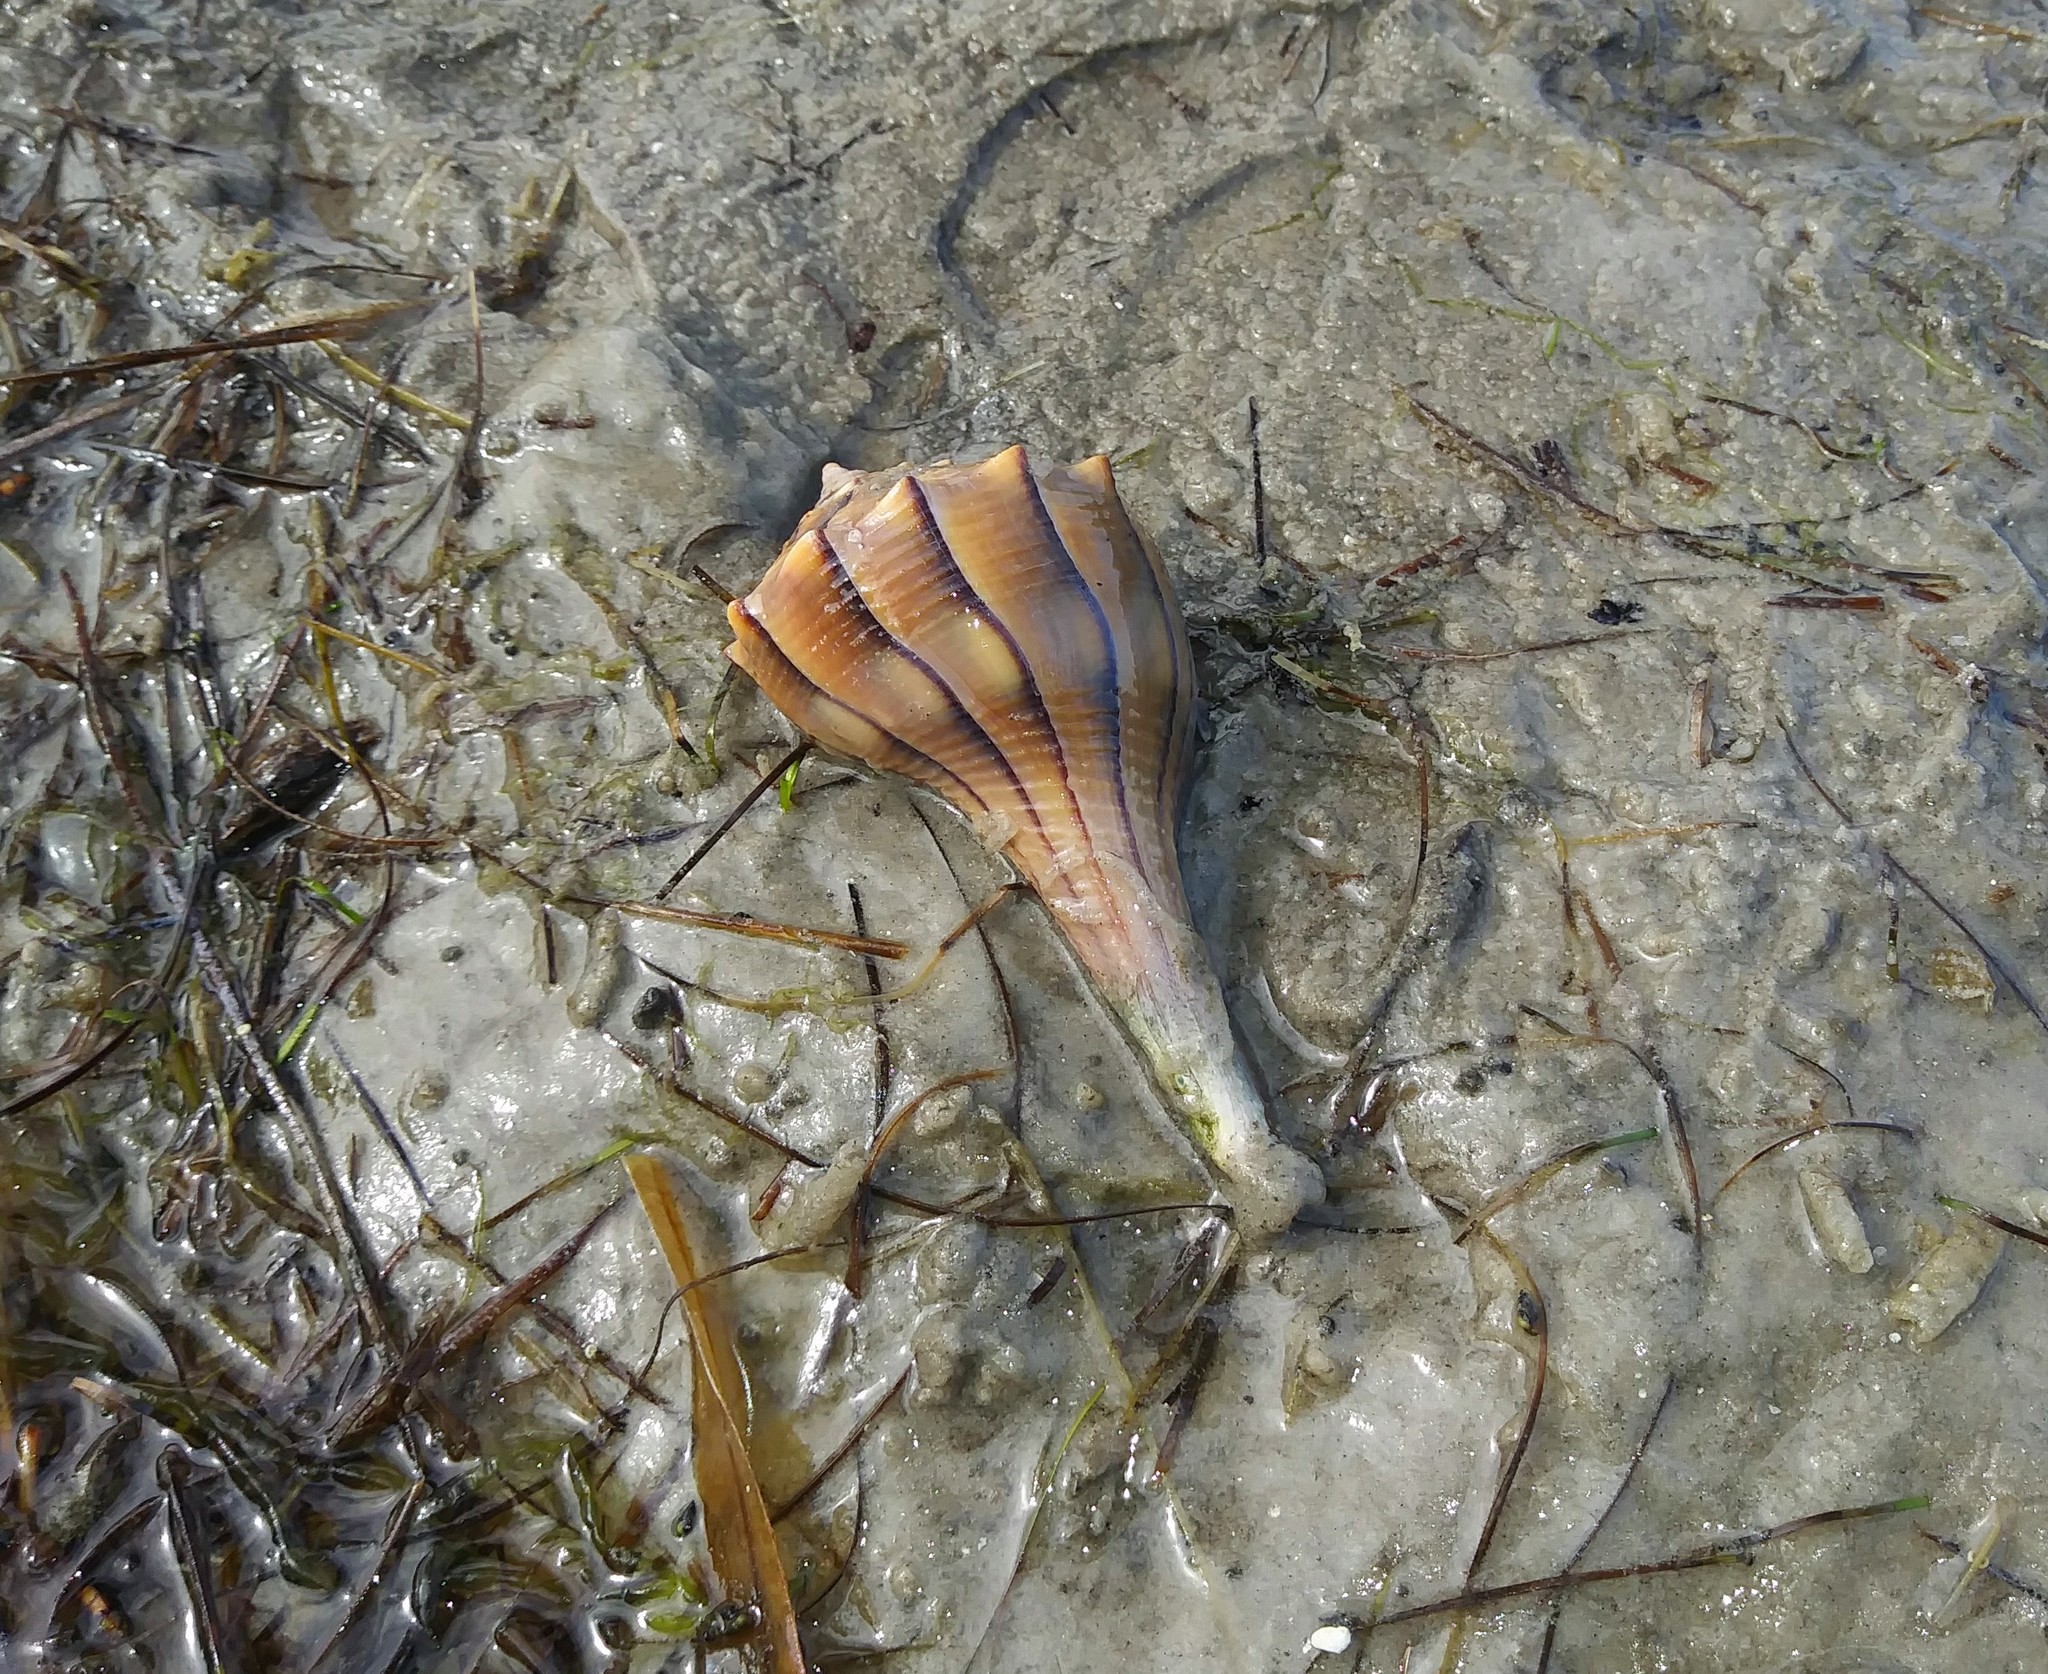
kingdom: Animalia
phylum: Mollusca
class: Gastropoda
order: Neogastropoda
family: Busyconidae
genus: Sinistrofulgur
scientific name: Sinistrofulgur sinistrum
